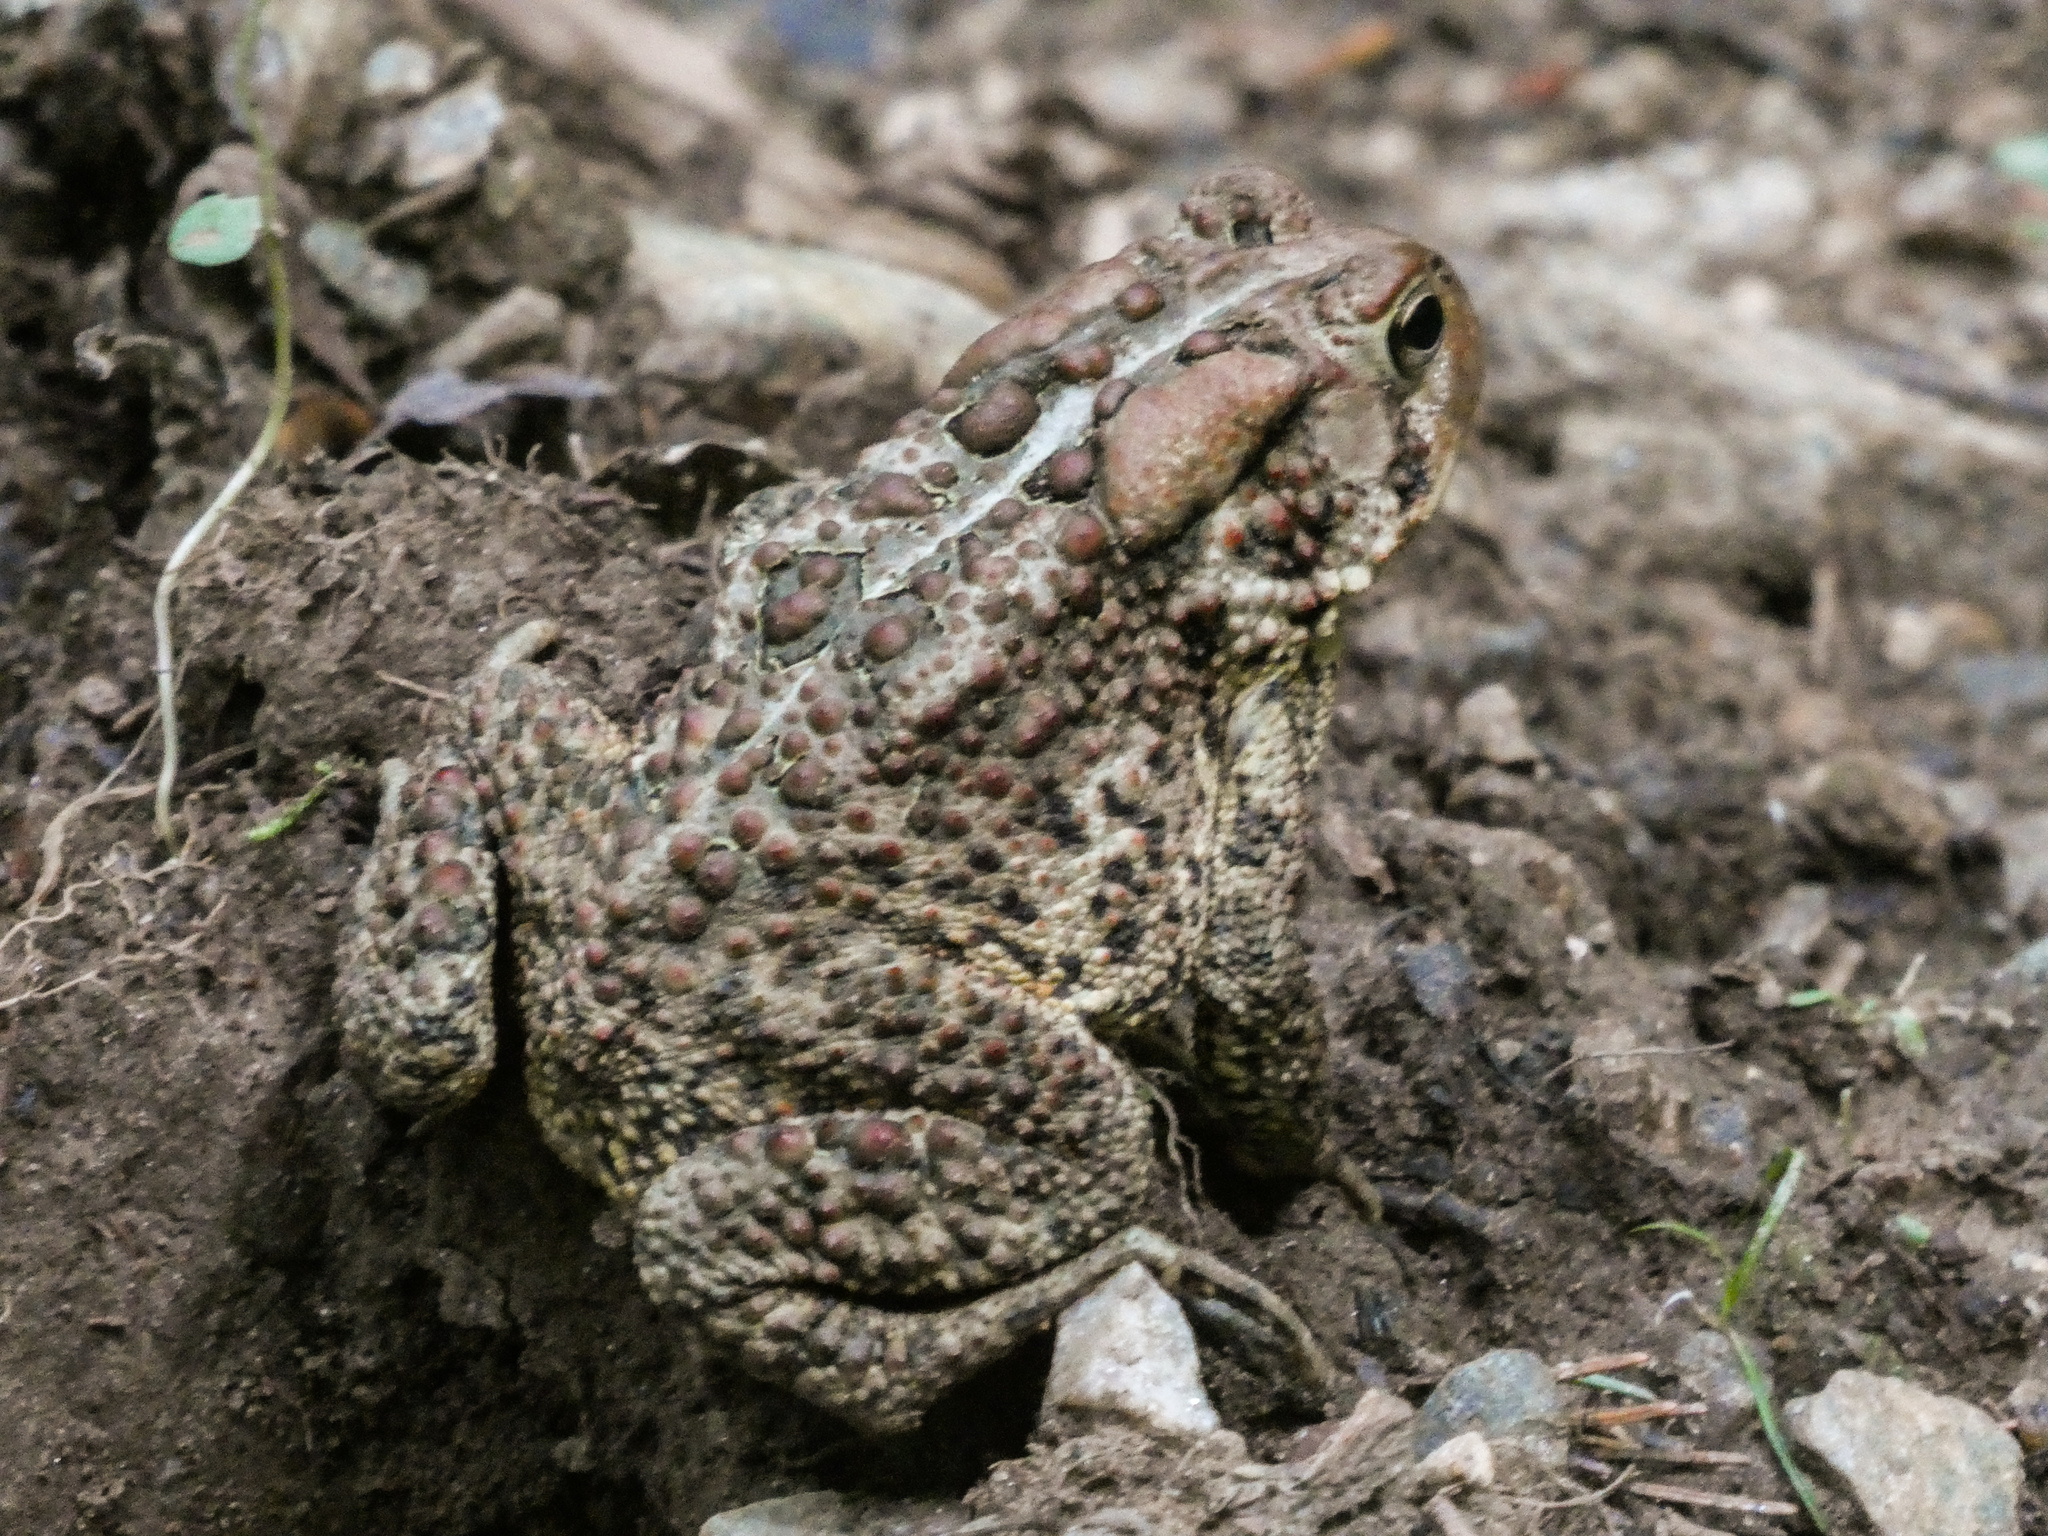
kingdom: Animalia
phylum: Chordata
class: Amphibia
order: Anura
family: Bufonidae
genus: Anaxyrus
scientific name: Anaxyrus americanus
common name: American toad
